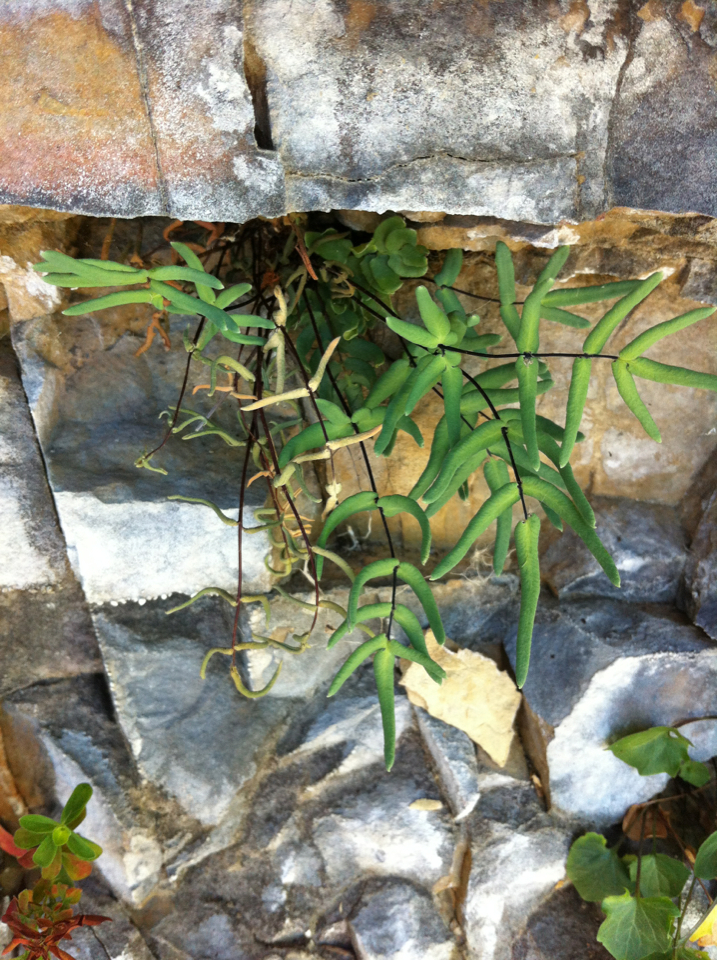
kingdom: Plantae
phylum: Tracheophyta
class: Polypodiopsida
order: Polypodiales
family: Pteridaceae
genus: Pellaea
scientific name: Pellaea
